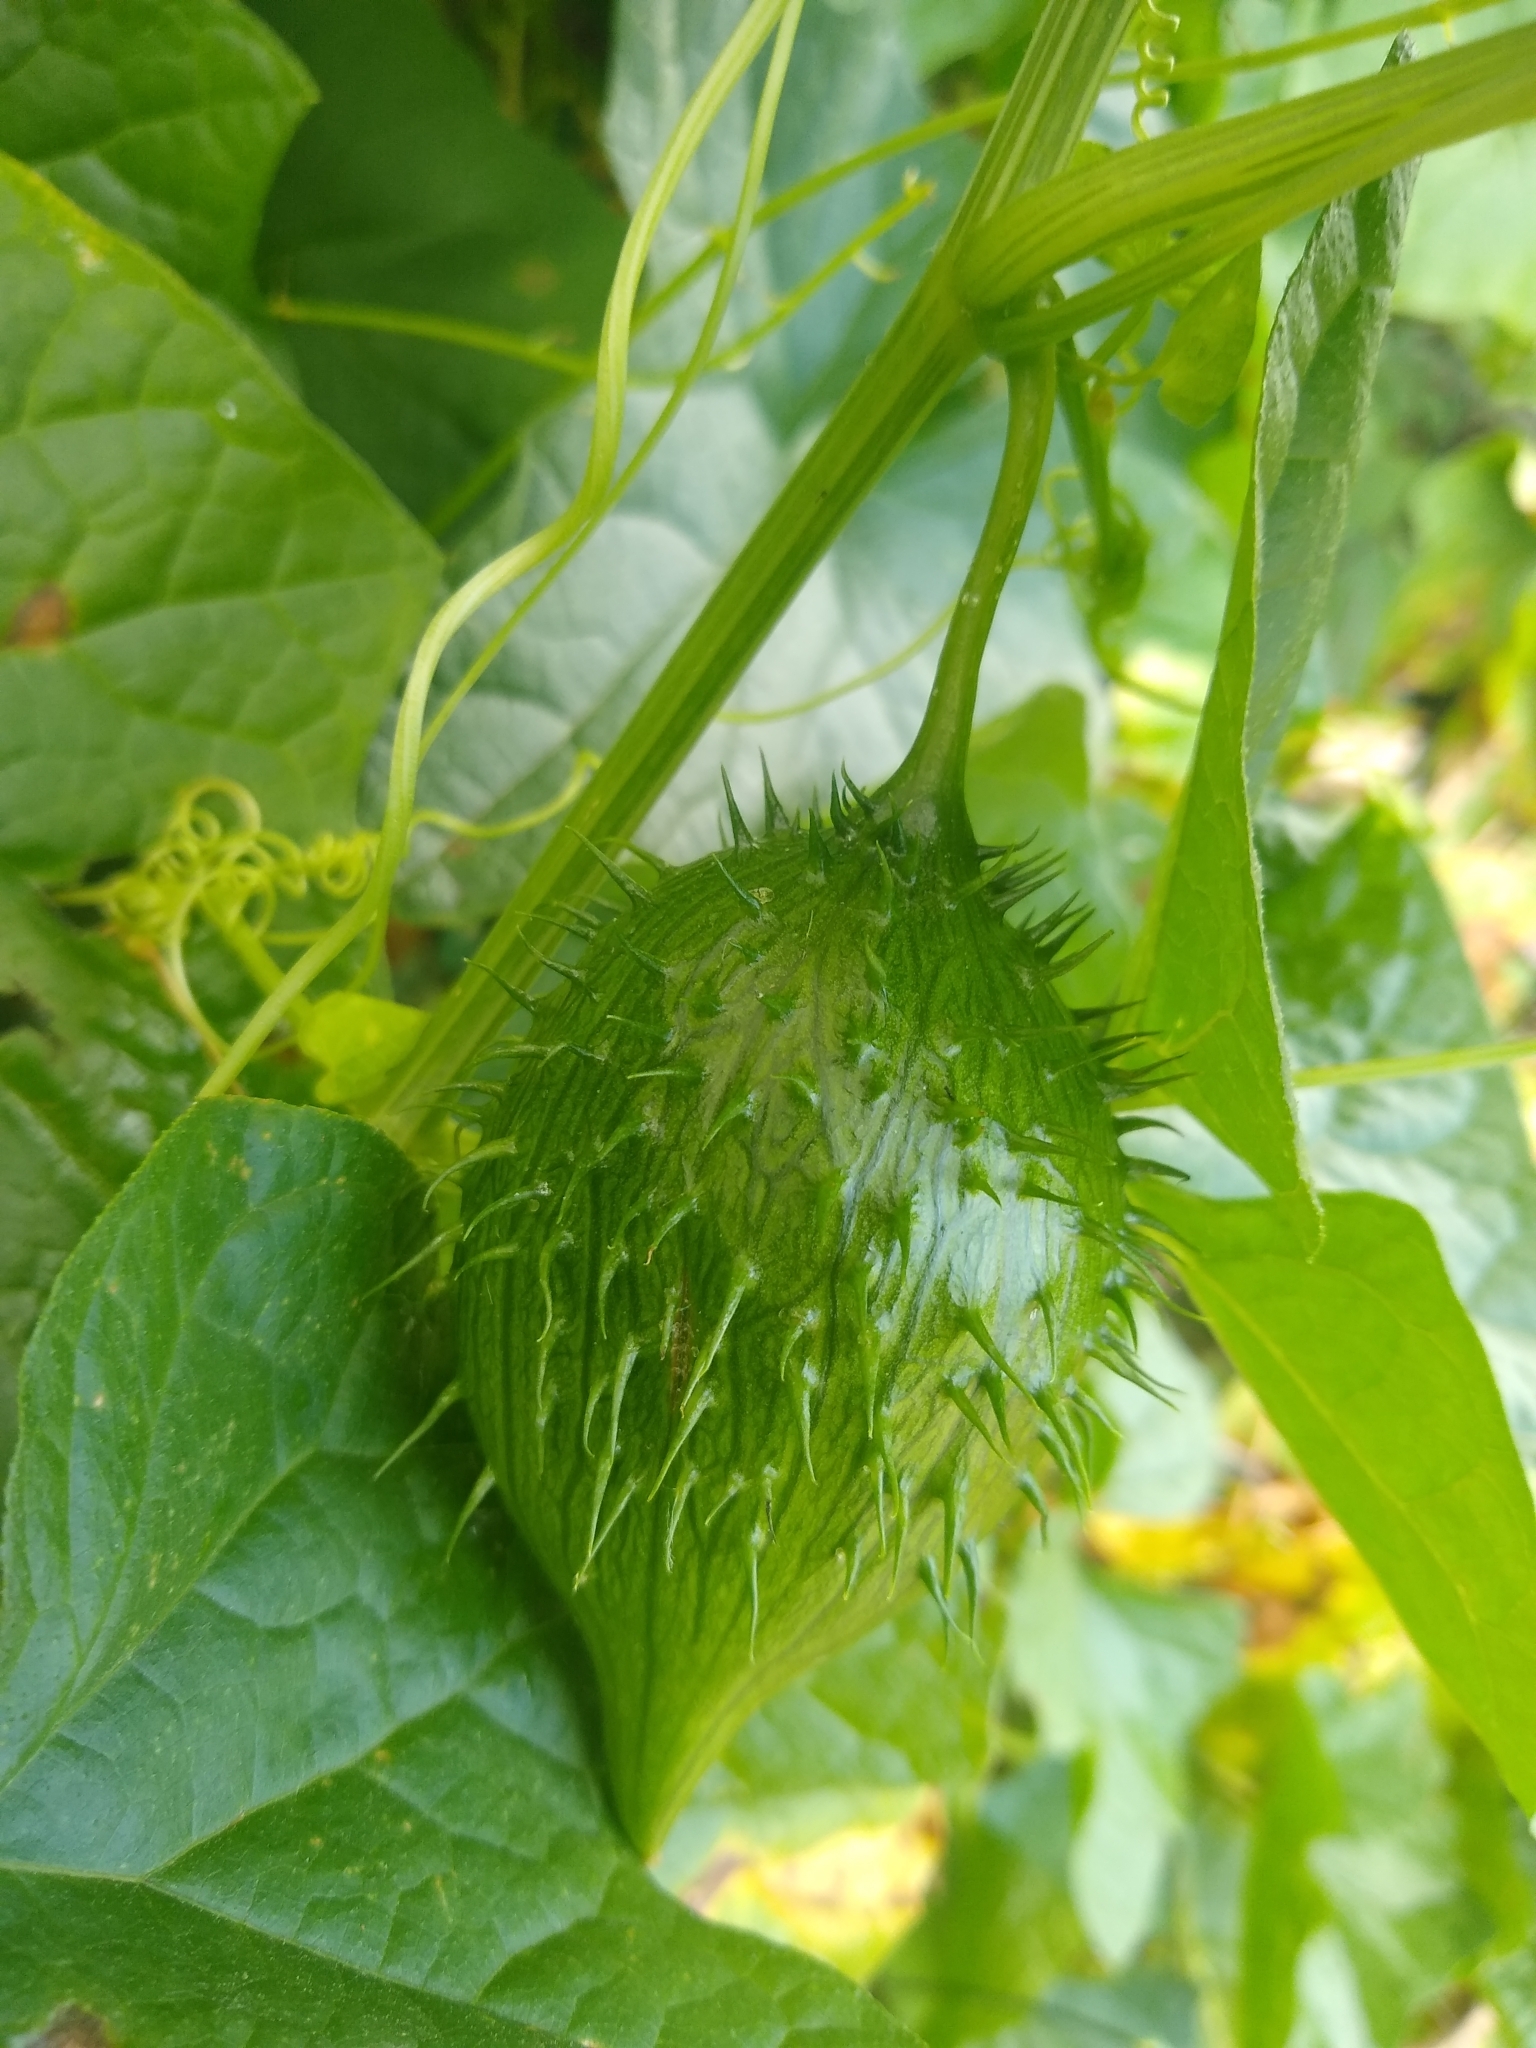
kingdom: Plantae
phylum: Tracheophyta
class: Magnoliopsida
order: Cucurbitales
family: Cucurbitaceae
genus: Marah
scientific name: Marah oregana
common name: Coastal manroot
